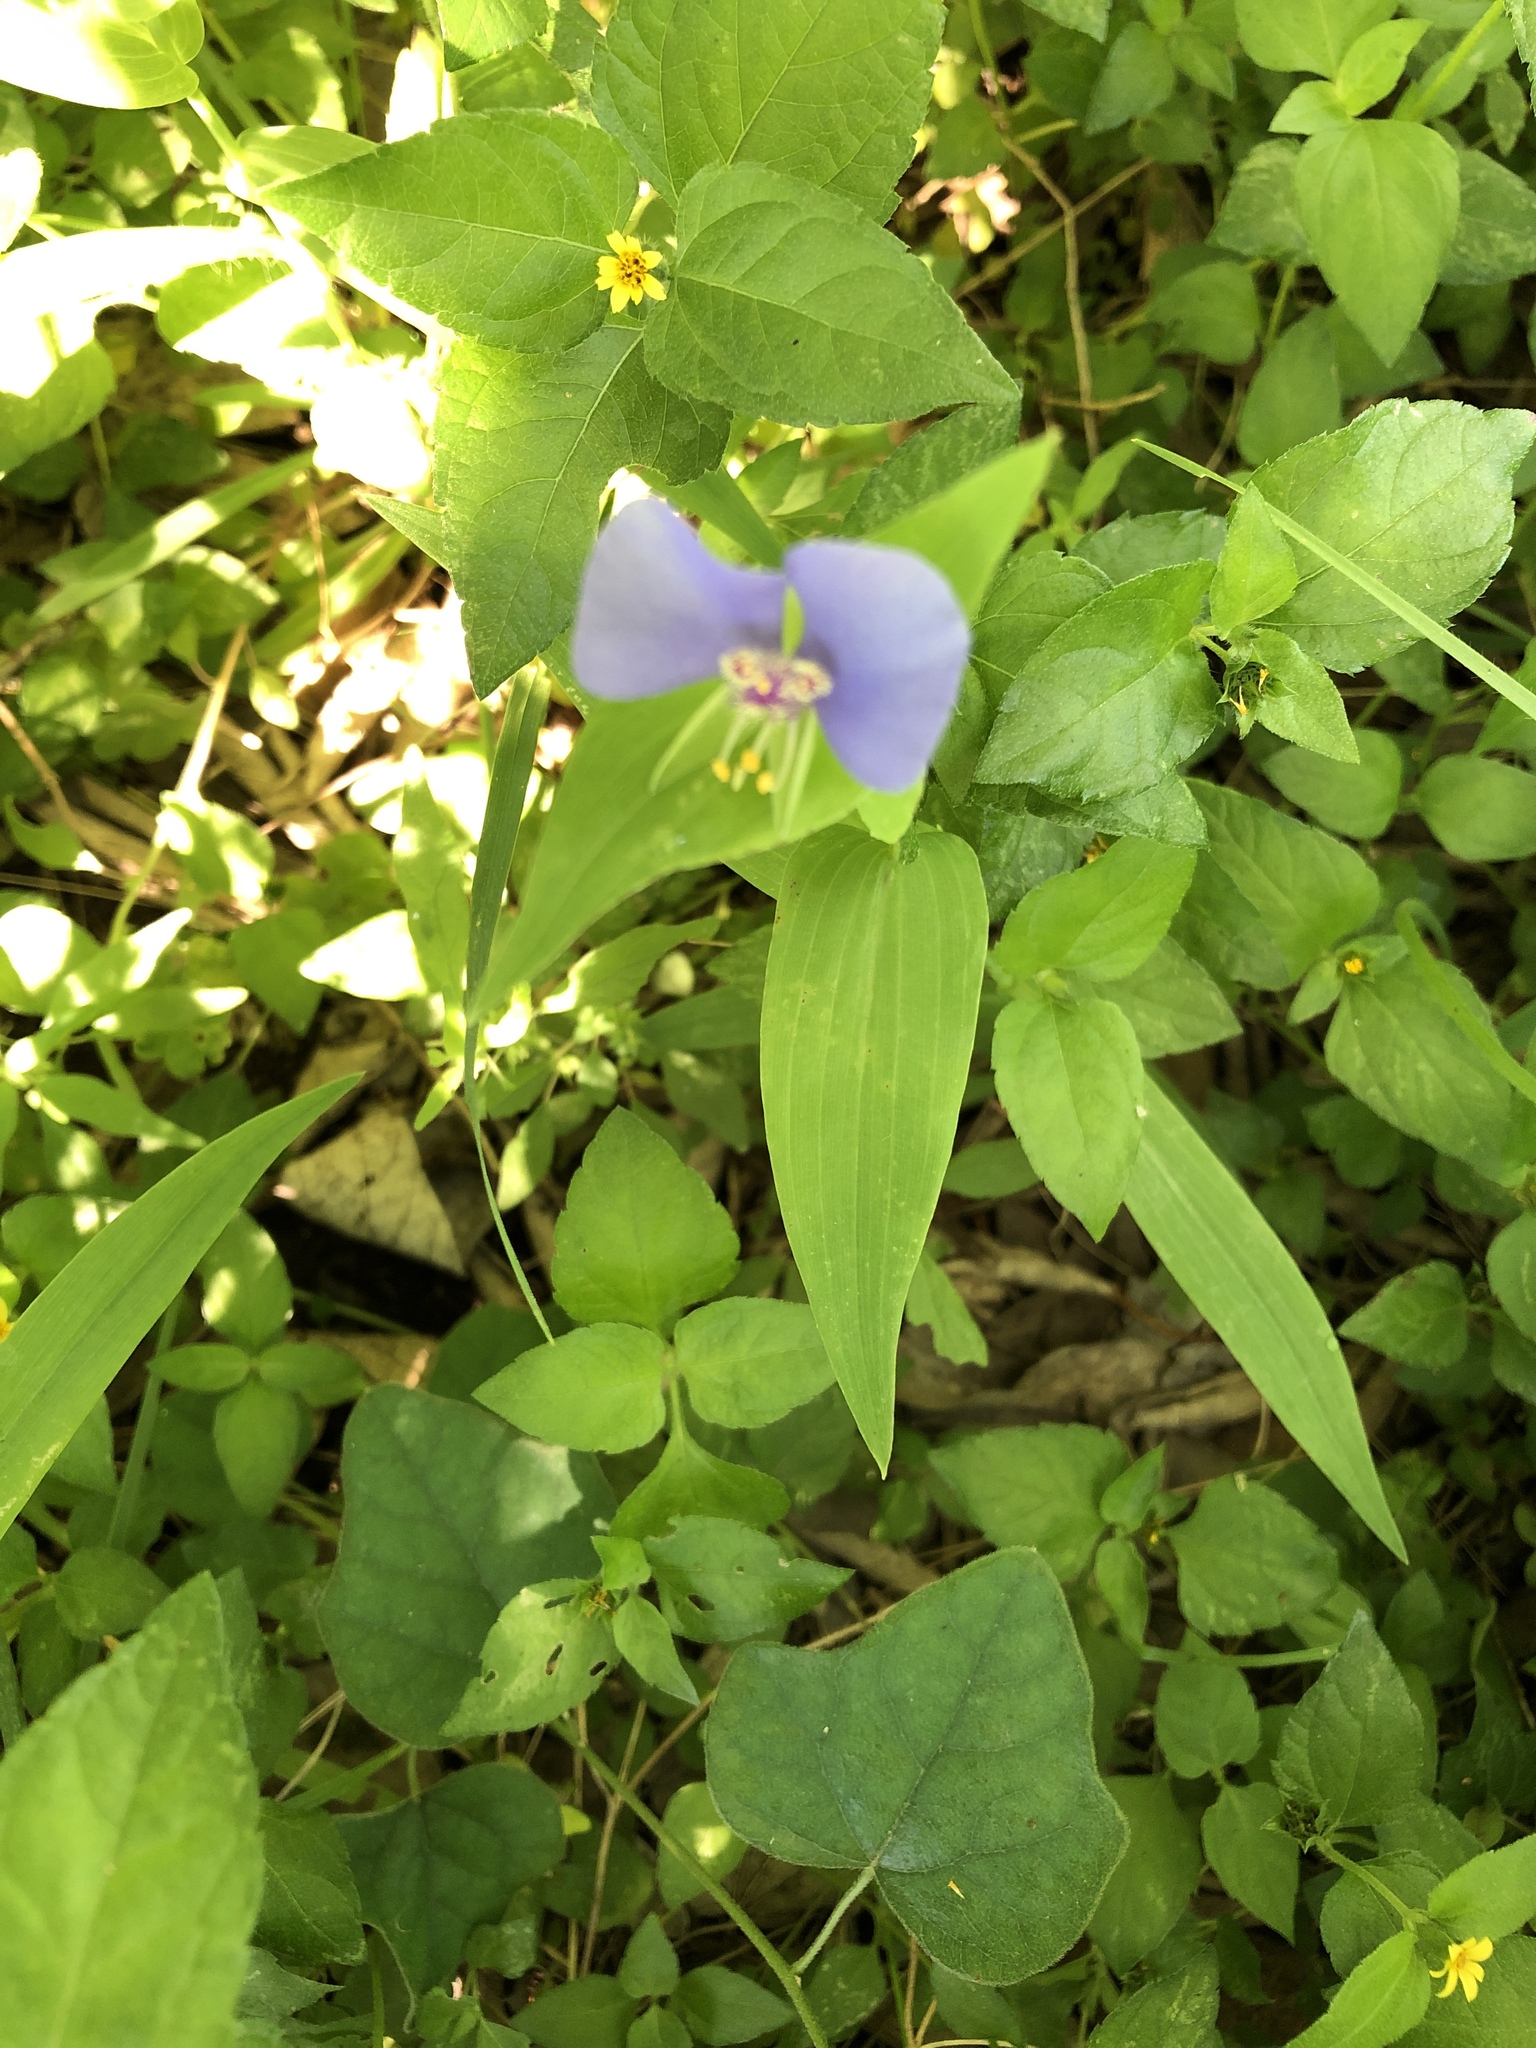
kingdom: Plantae
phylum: Tracheophyta
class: Liliopsida
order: Commelinales
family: Commelinaceae
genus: Tinantia
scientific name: Tinantia anomala
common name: False dayflower
